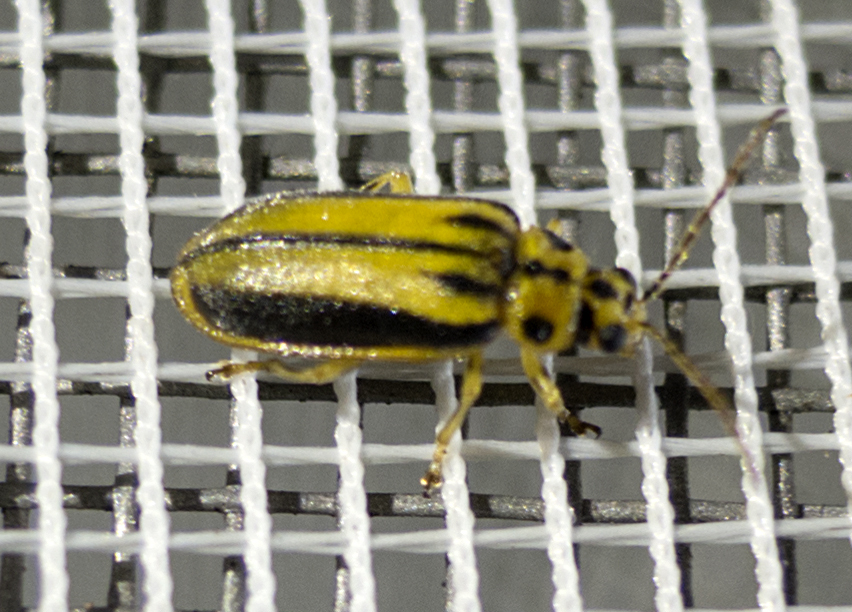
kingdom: Animalia
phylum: Arthropoda
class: Insecta
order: Coleoptera
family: Chrysomelidae
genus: Xanthogaleruca
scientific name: Xanthogaleruca luteola
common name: Elm leaf beetle
